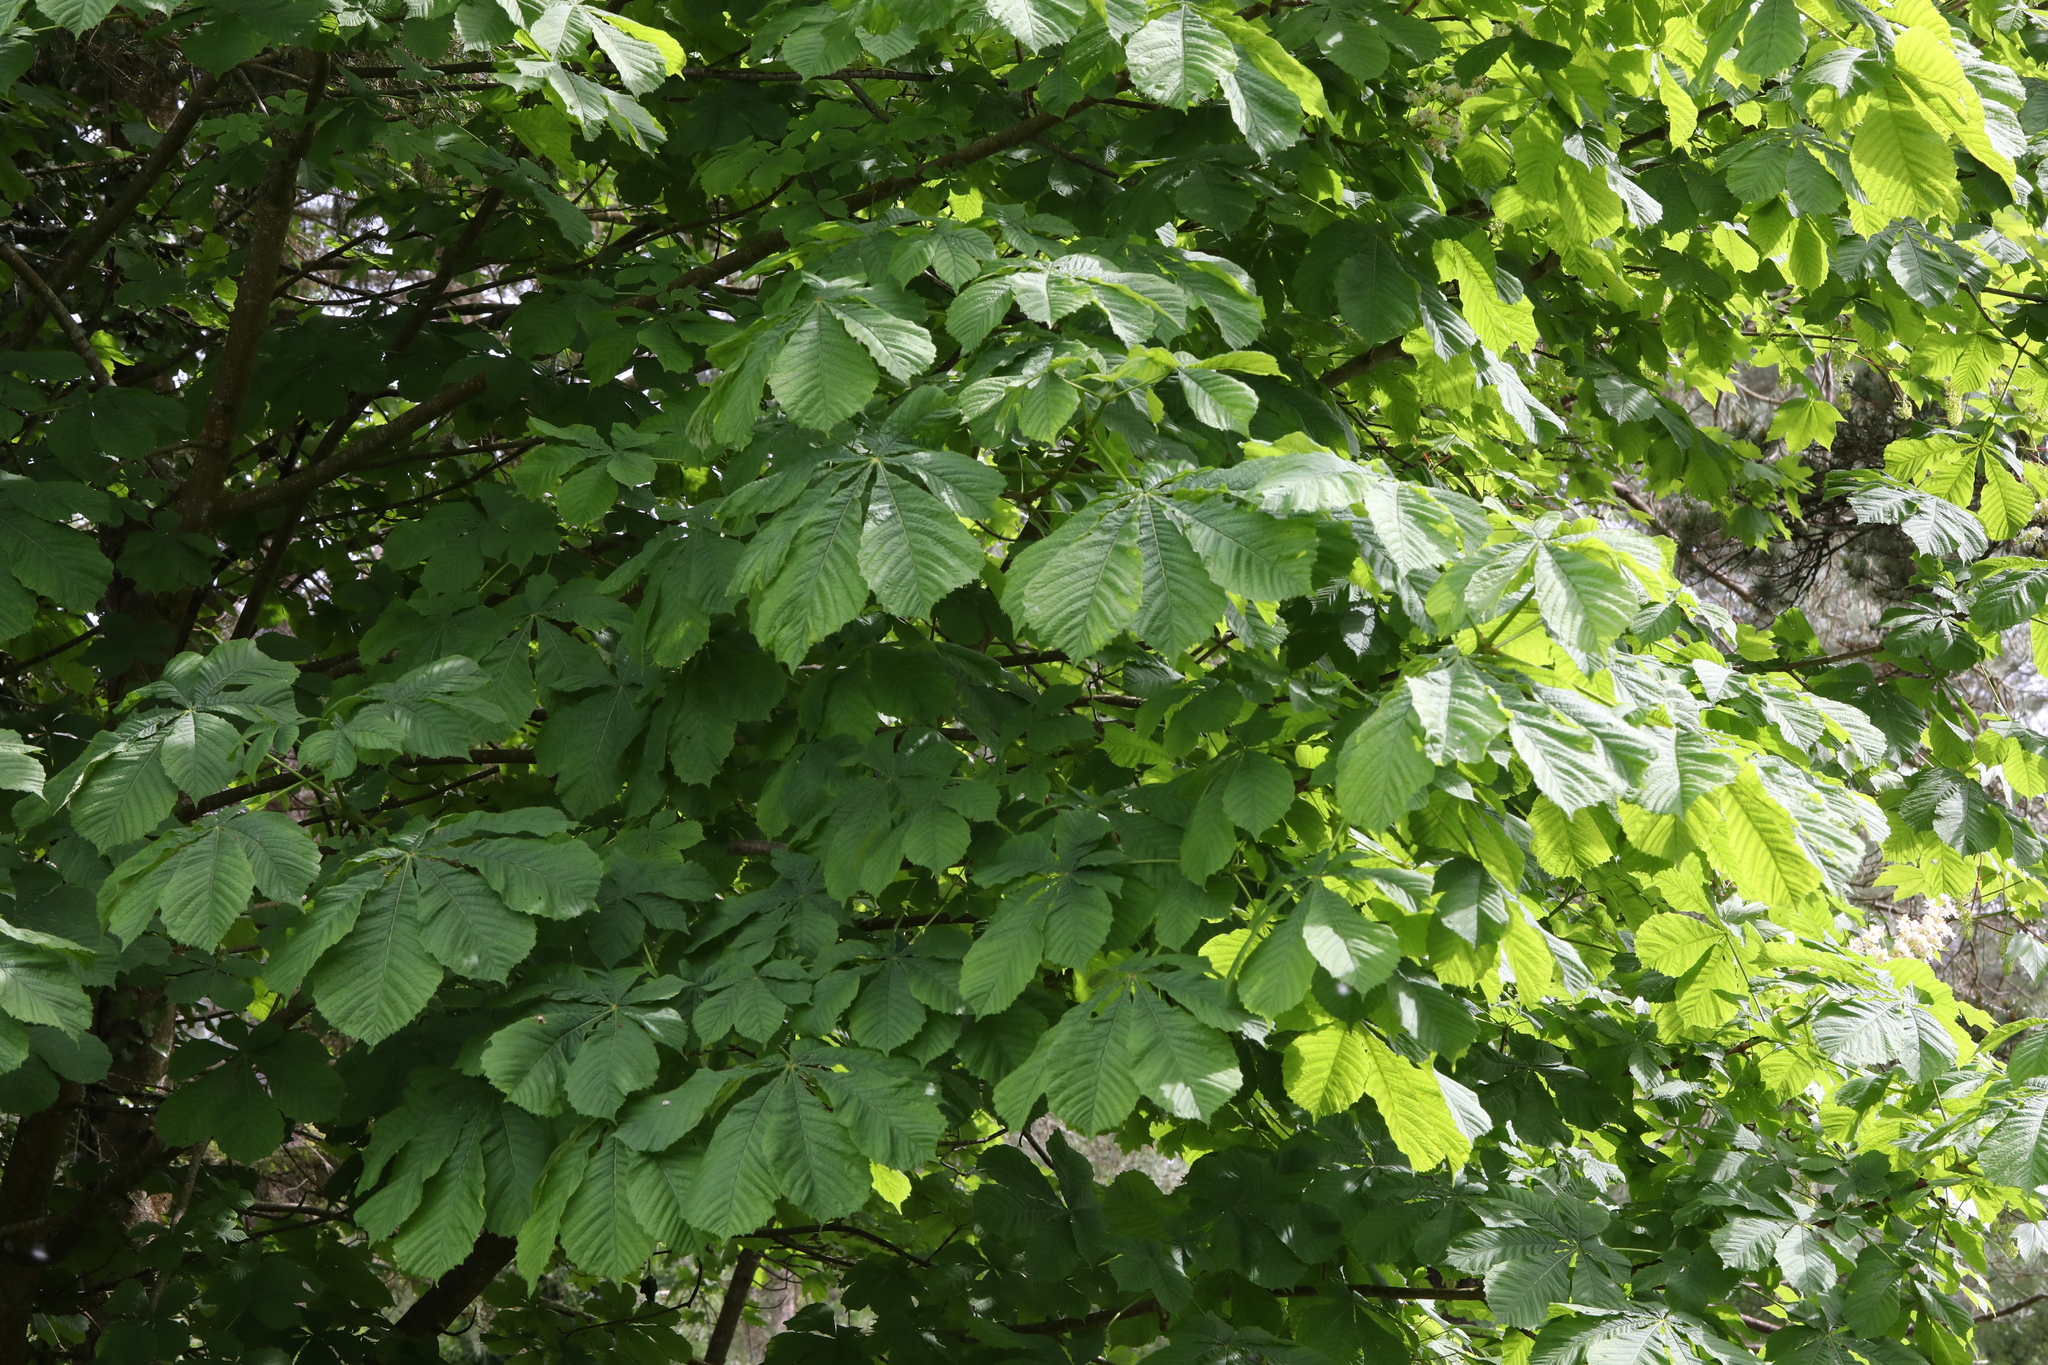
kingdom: Plantae
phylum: Tracheophyta
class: Magnoliopsida
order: Sapindales
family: Sapindaceae
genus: Aesculus
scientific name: Aesculus hippocastanum
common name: Horse-chestnut
